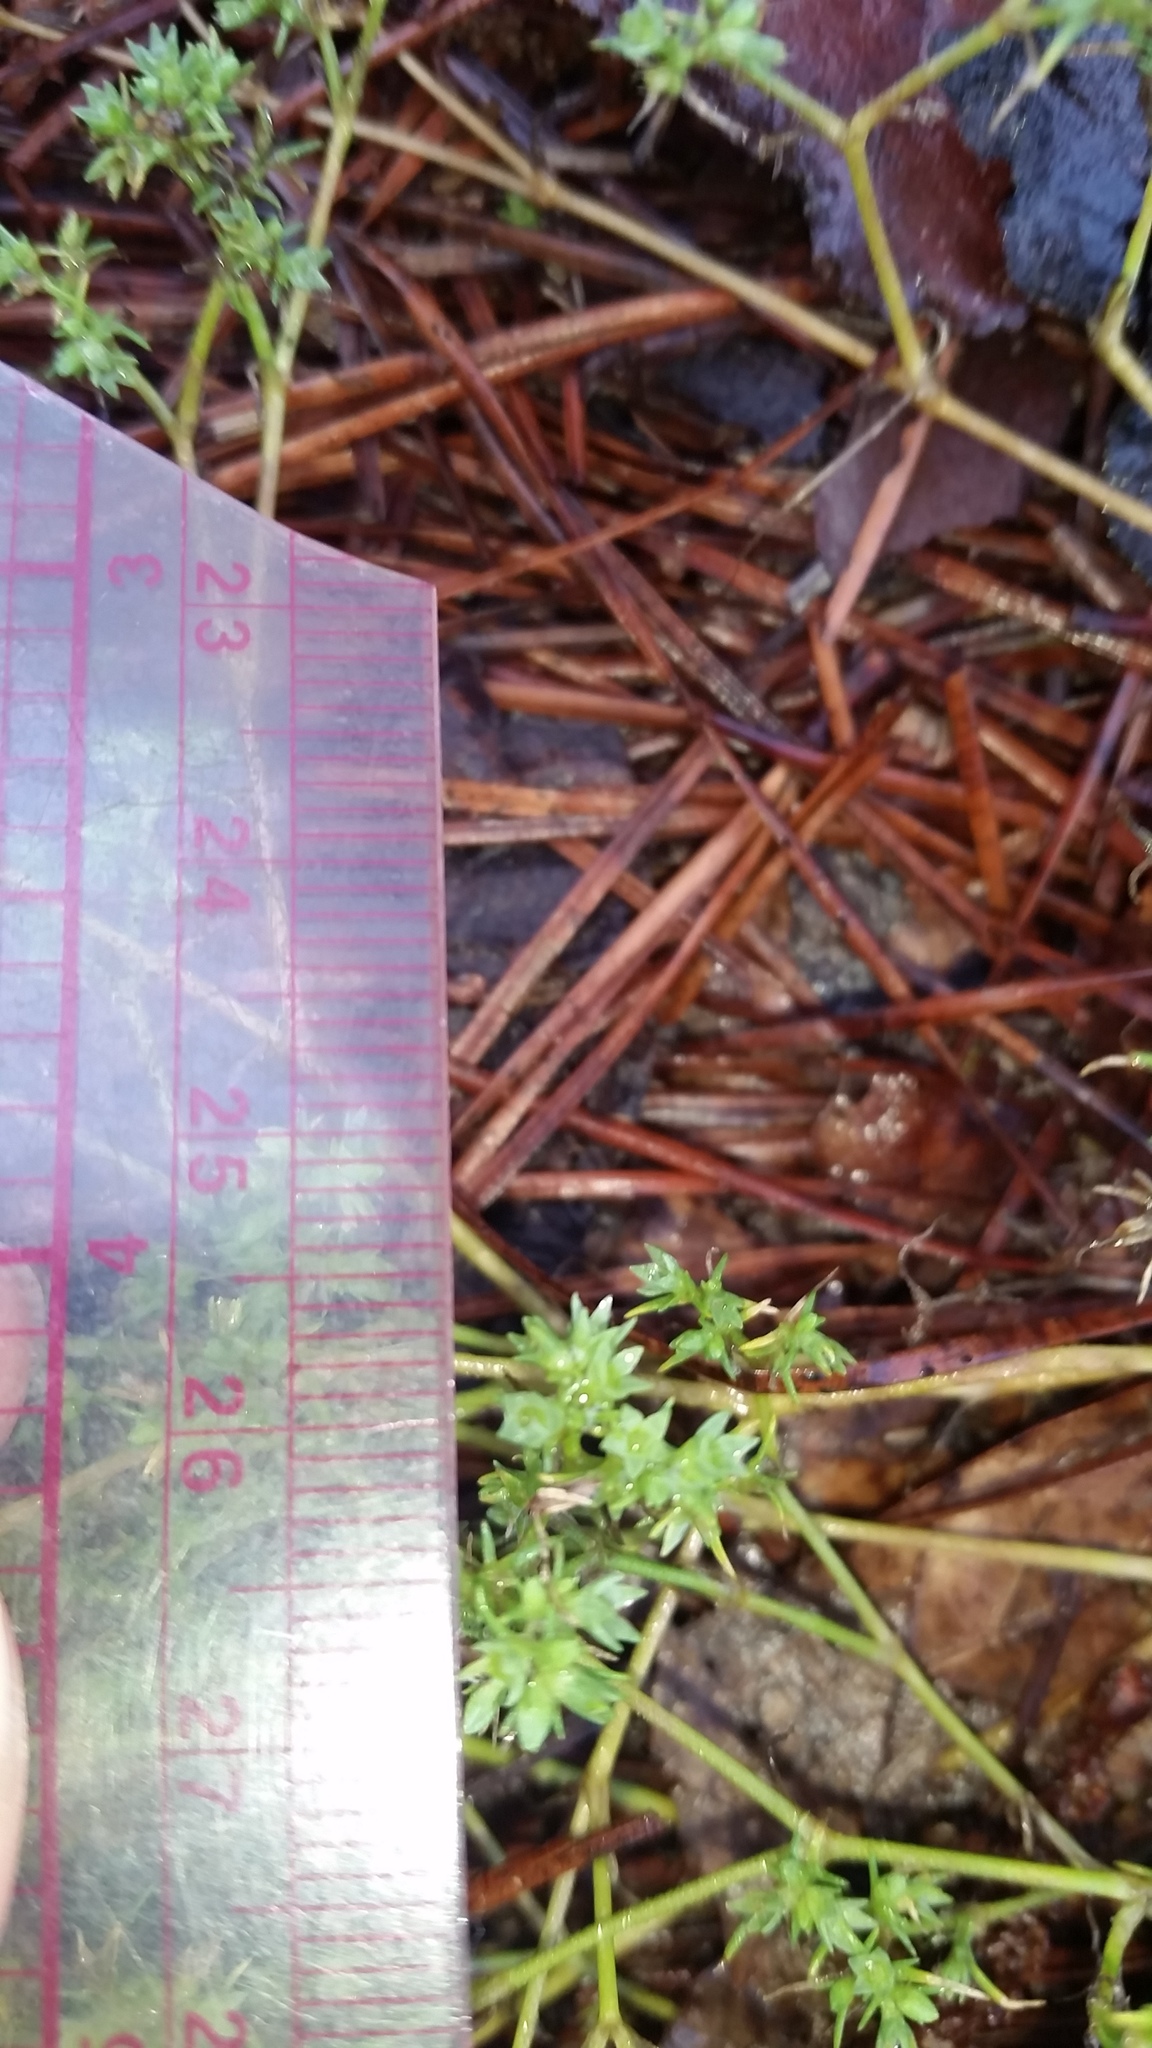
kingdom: Plantae
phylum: Tracheophyta
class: Magnoliopsida
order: Caryophyllales
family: Caryophyllaceae
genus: Scleranthus
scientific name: Scleranthus annuus
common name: Annual knawel
